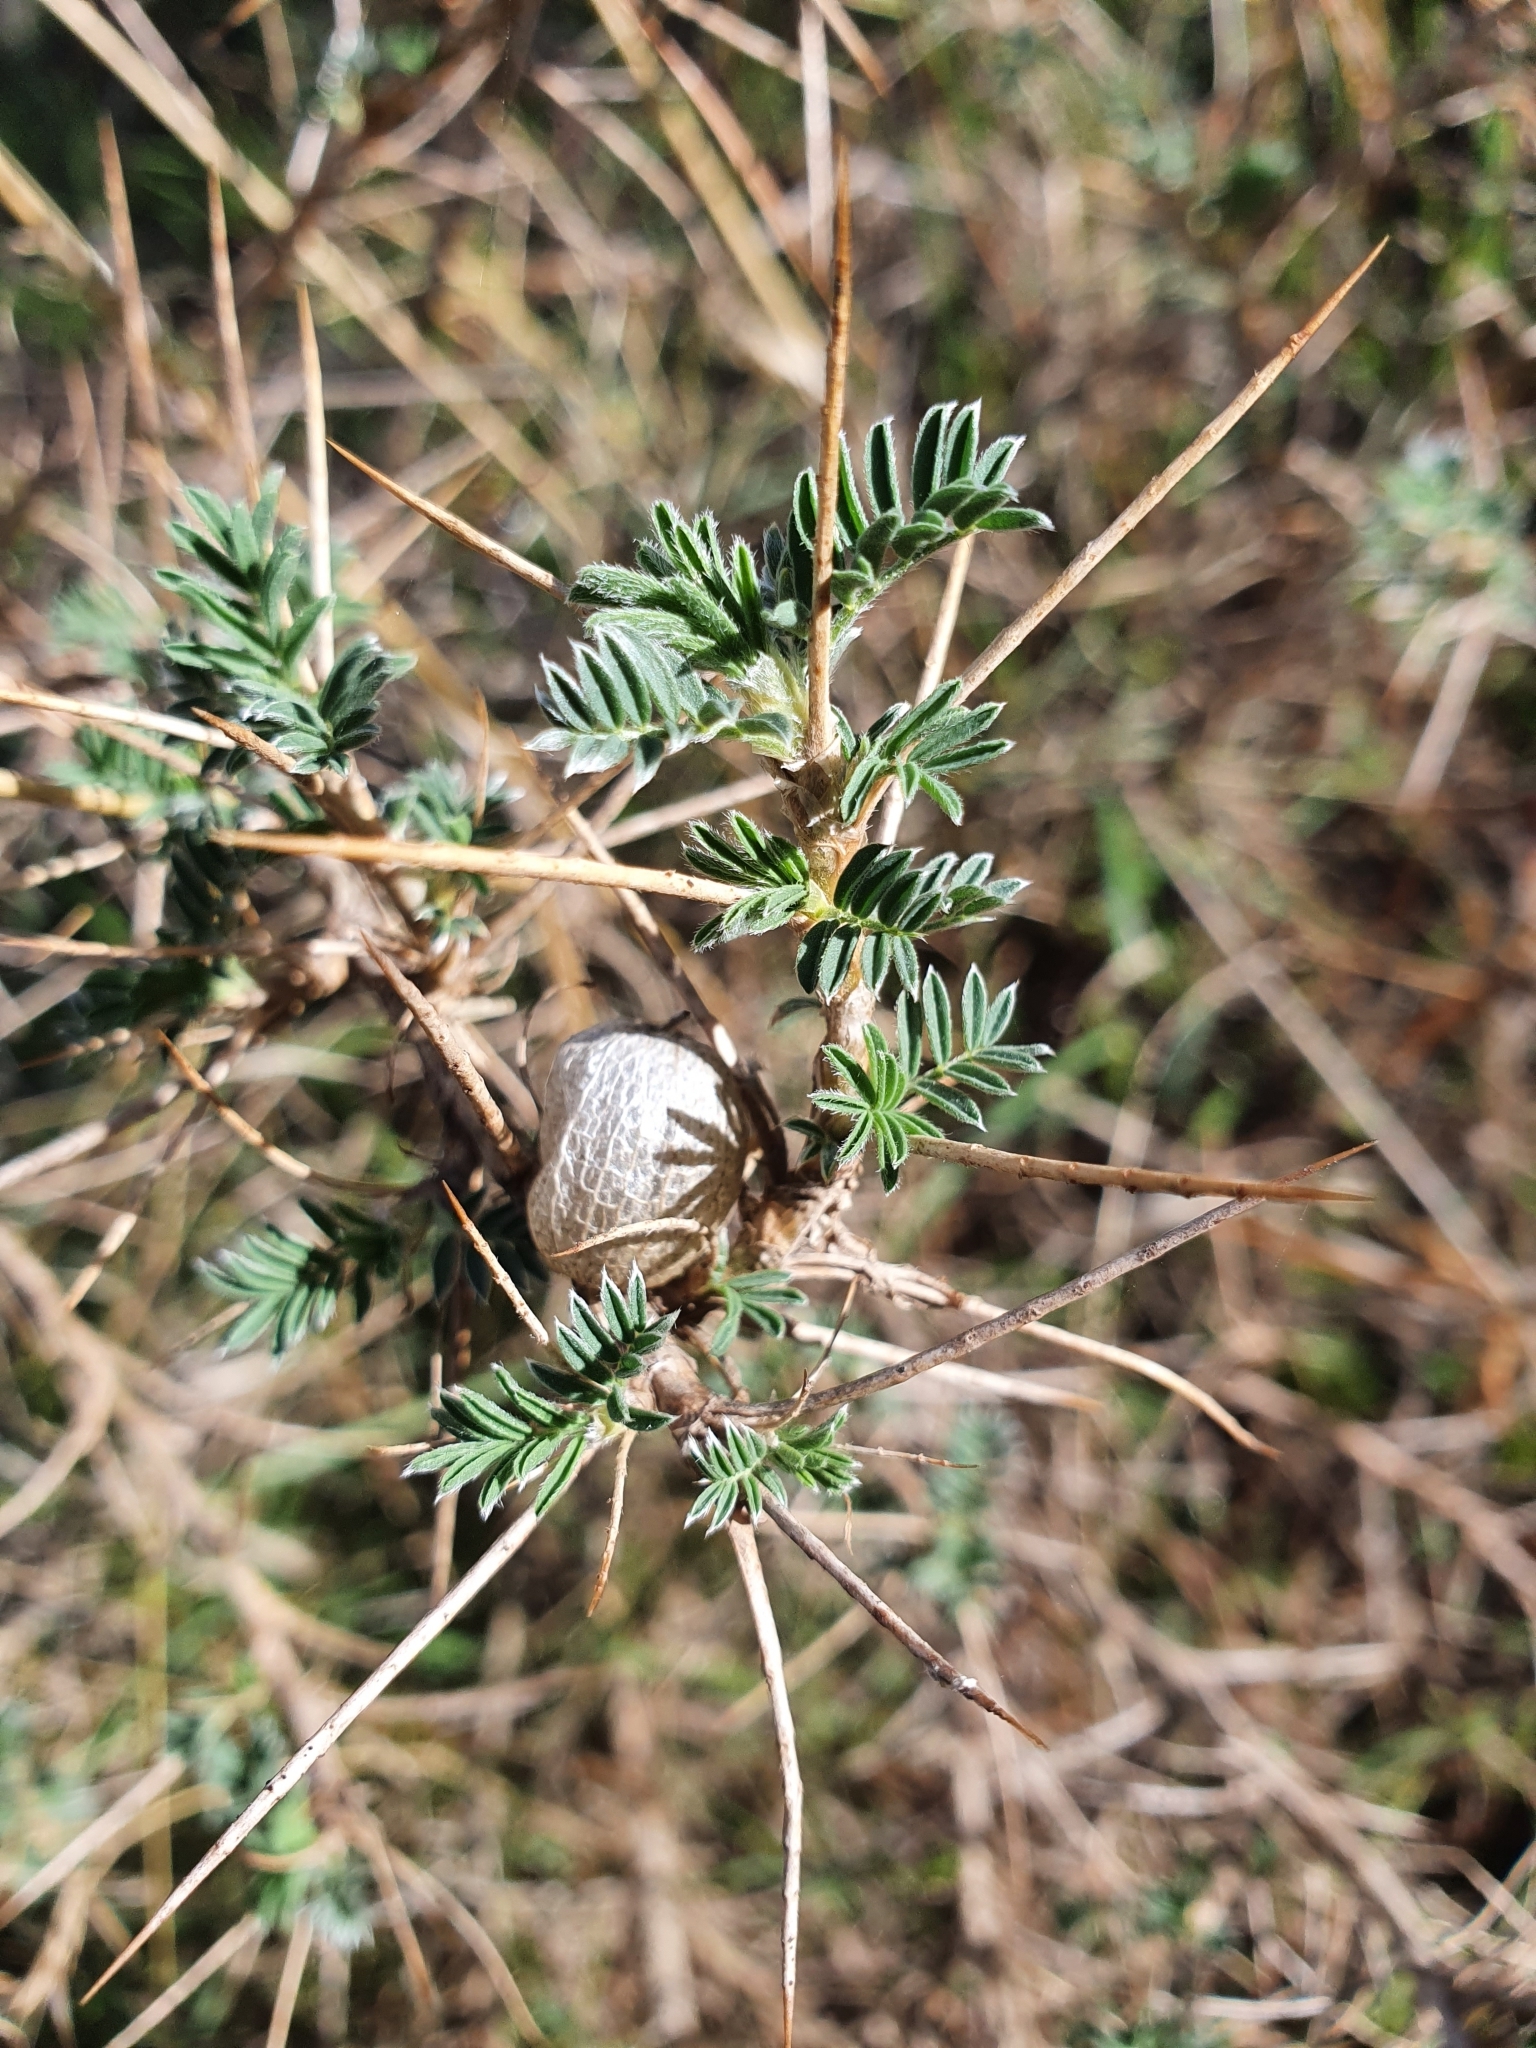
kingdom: Plantae
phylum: Tracheophyta
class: Magnoliopsida
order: Fabales
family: Fabaceae
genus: Astragalus
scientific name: Astragalus armatus
